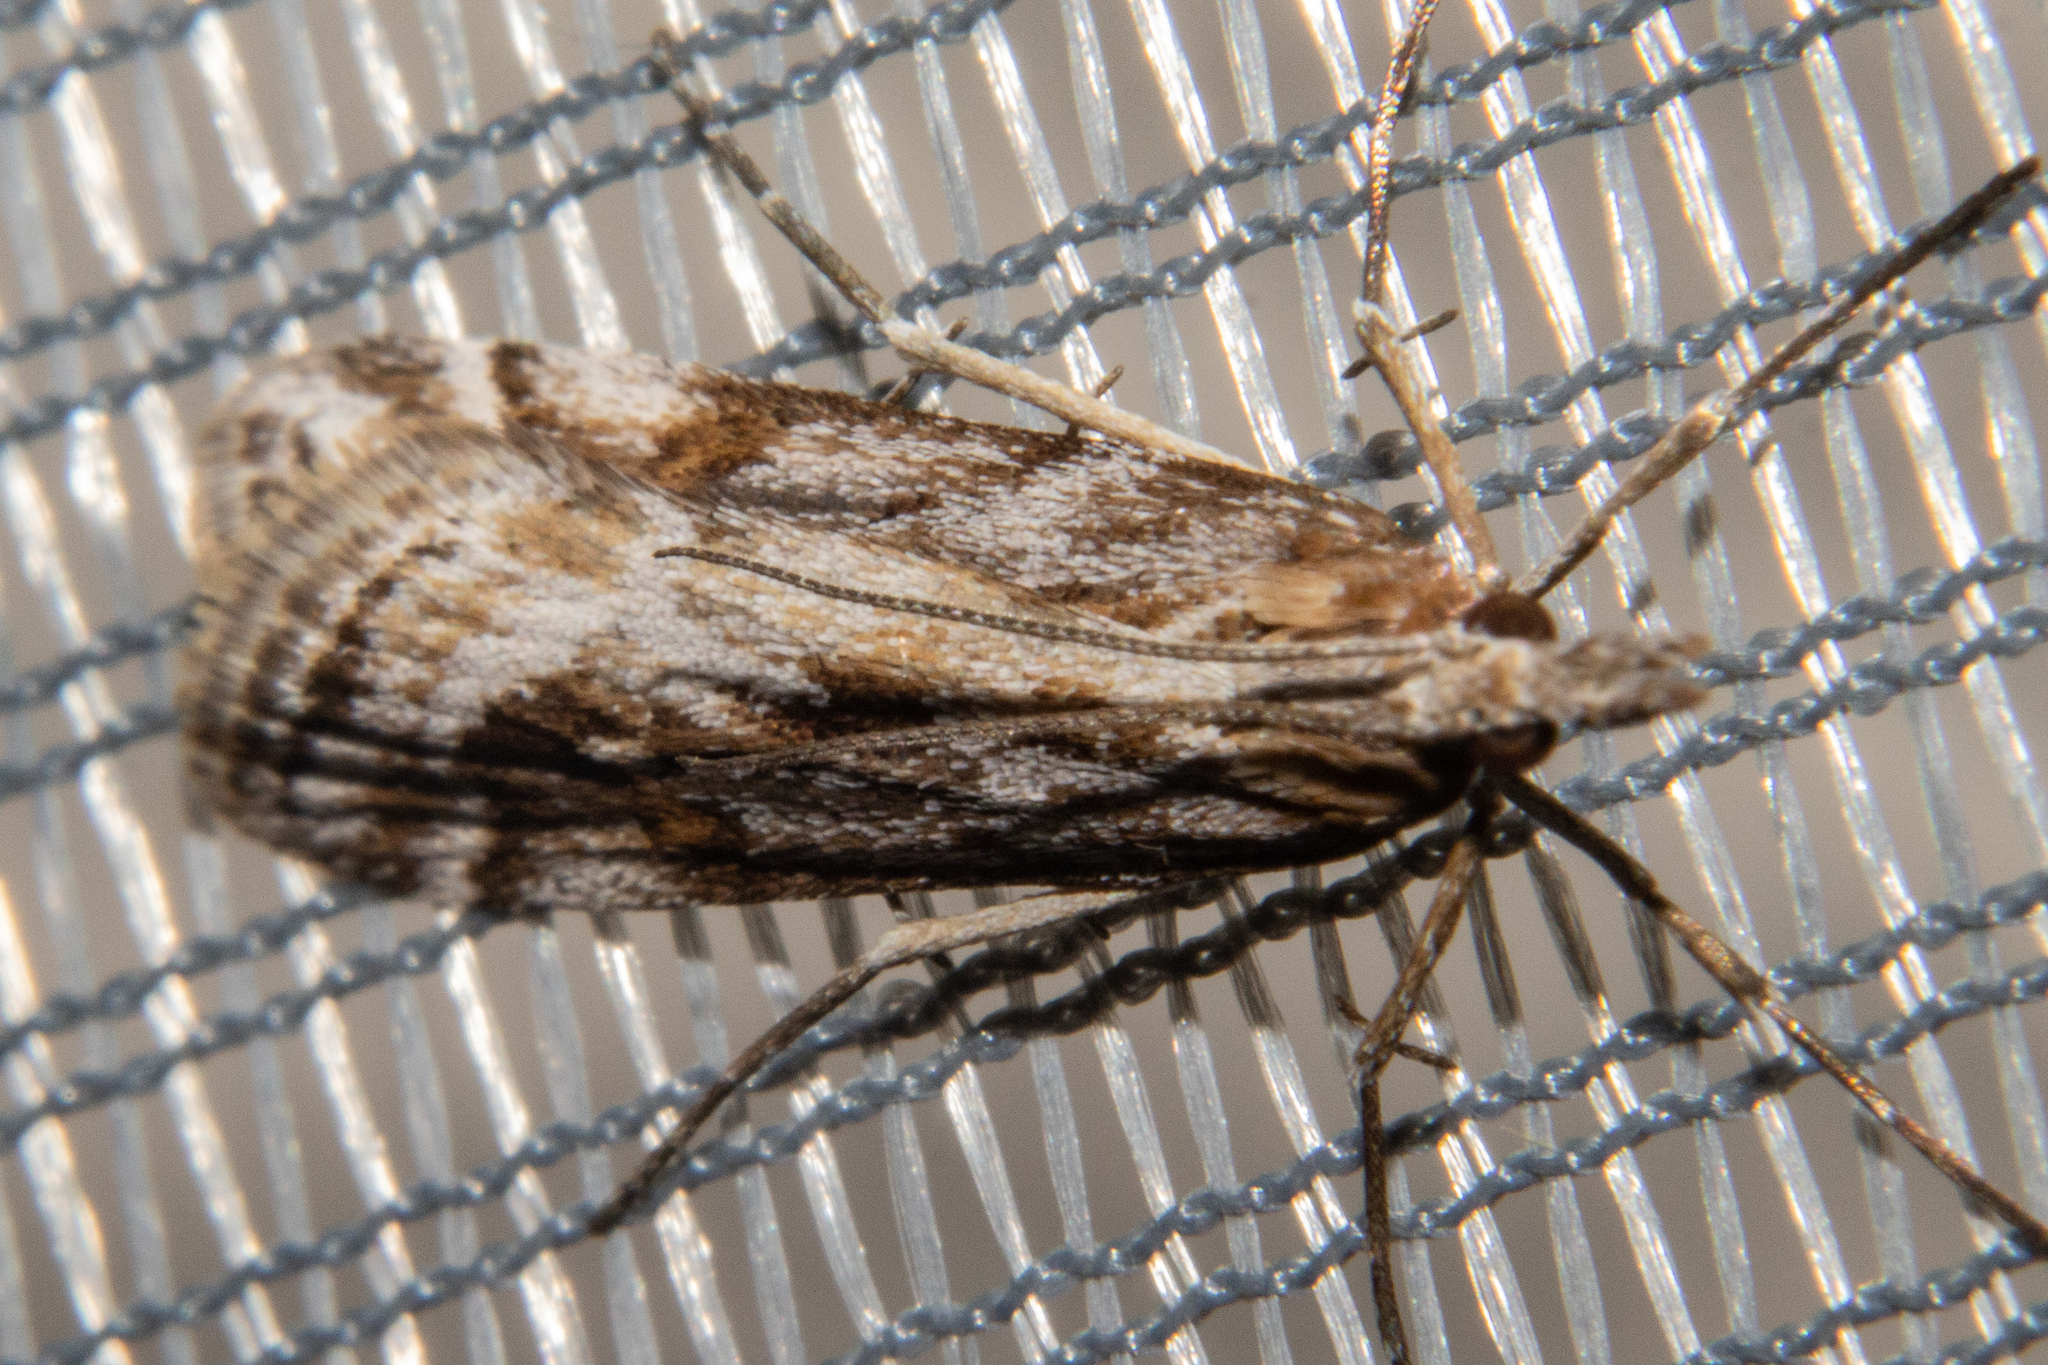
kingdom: Animalia
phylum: Arthropoda
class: Insecta
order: Lepidoptera
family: Crambidae
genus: Scoparia
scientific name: Scoparia exilis
